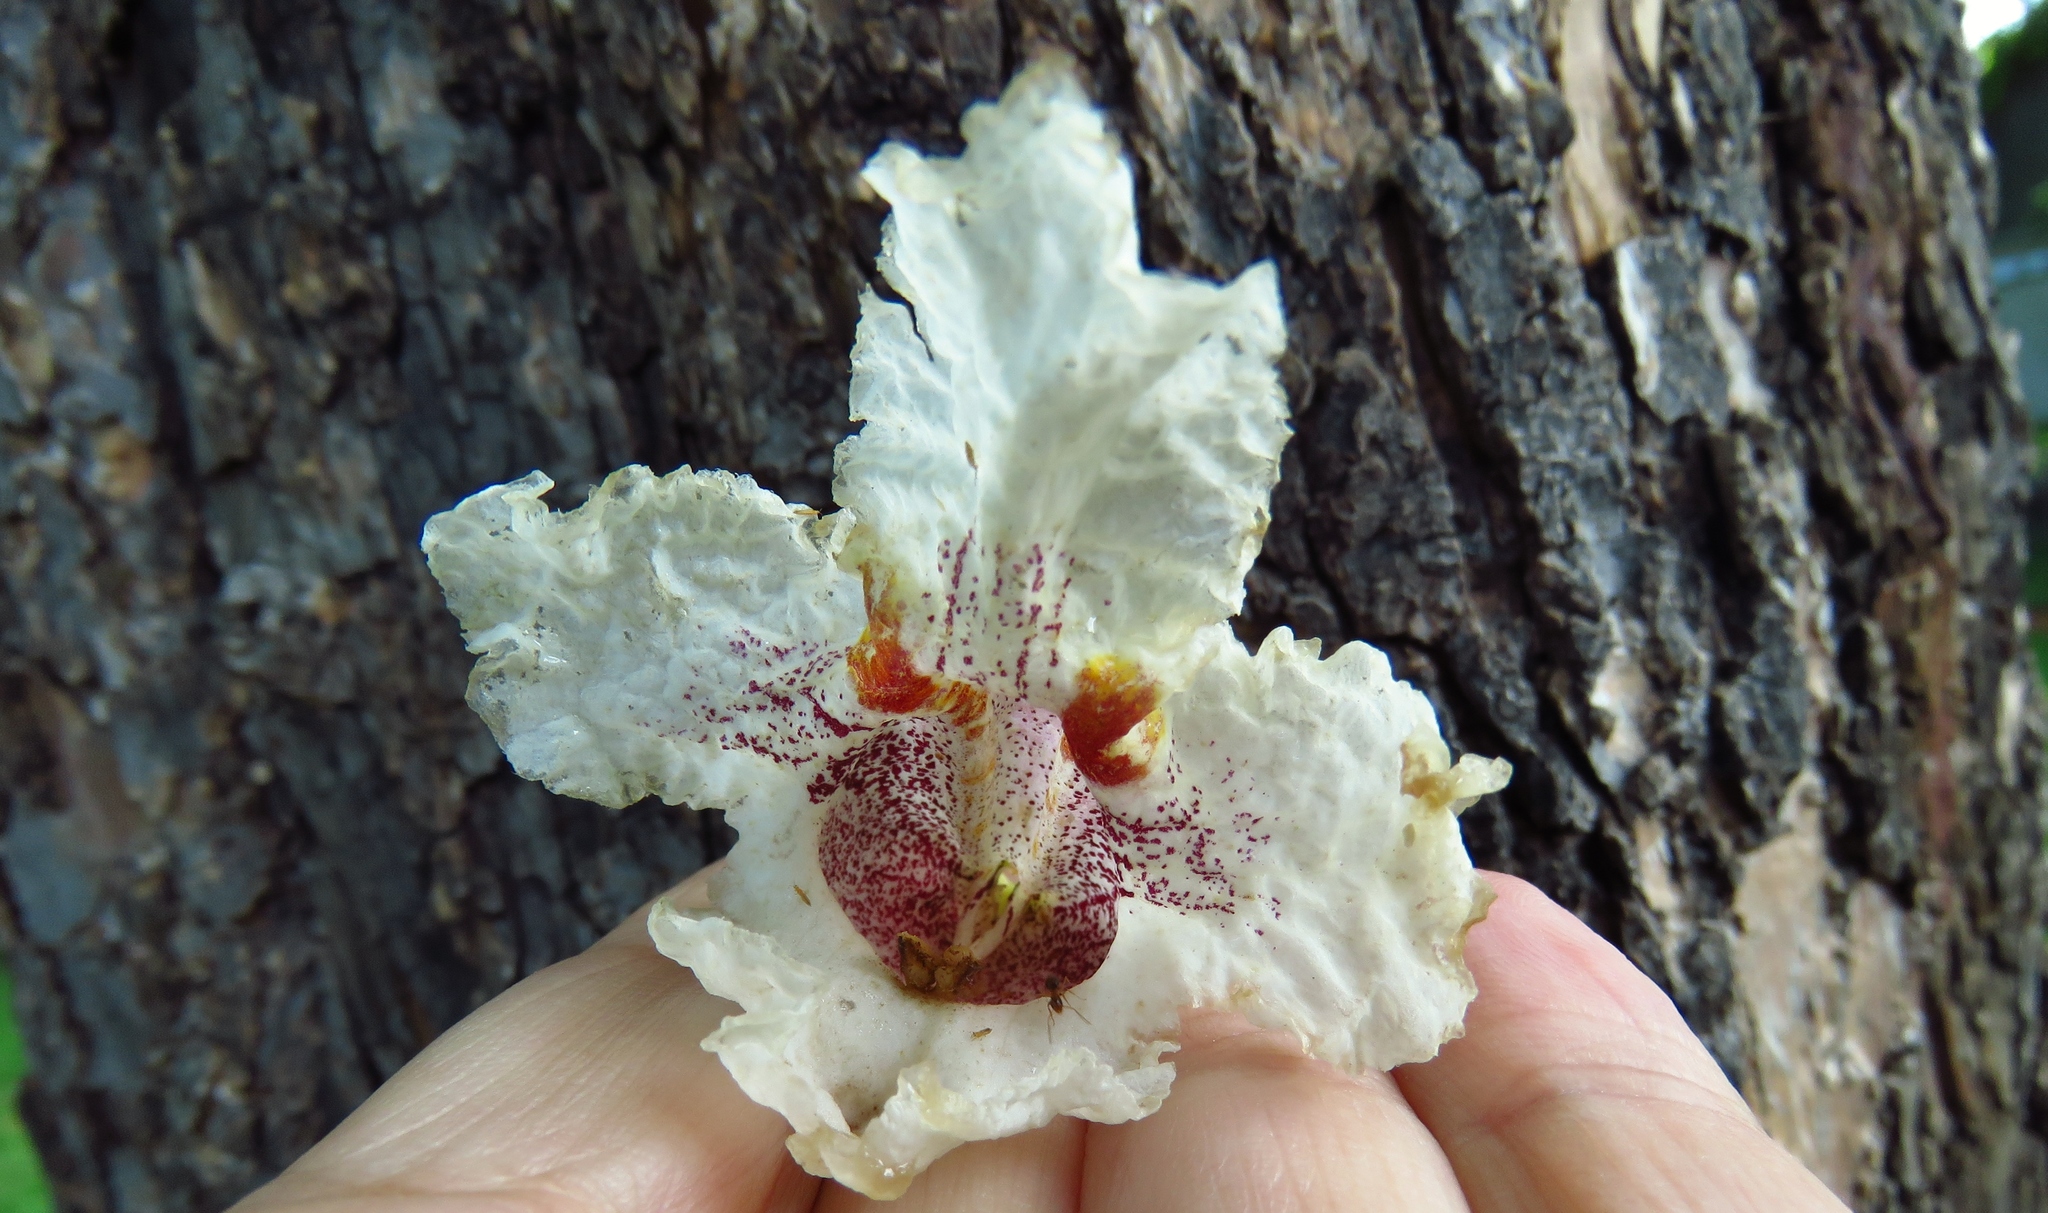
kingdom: Plantae
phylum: Tracheophyta
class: Magnoliopsida
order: Lamiales
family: Bignoniaceae
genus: Catalpa
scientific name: Catalpa speciosa
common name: Northern catalpa
